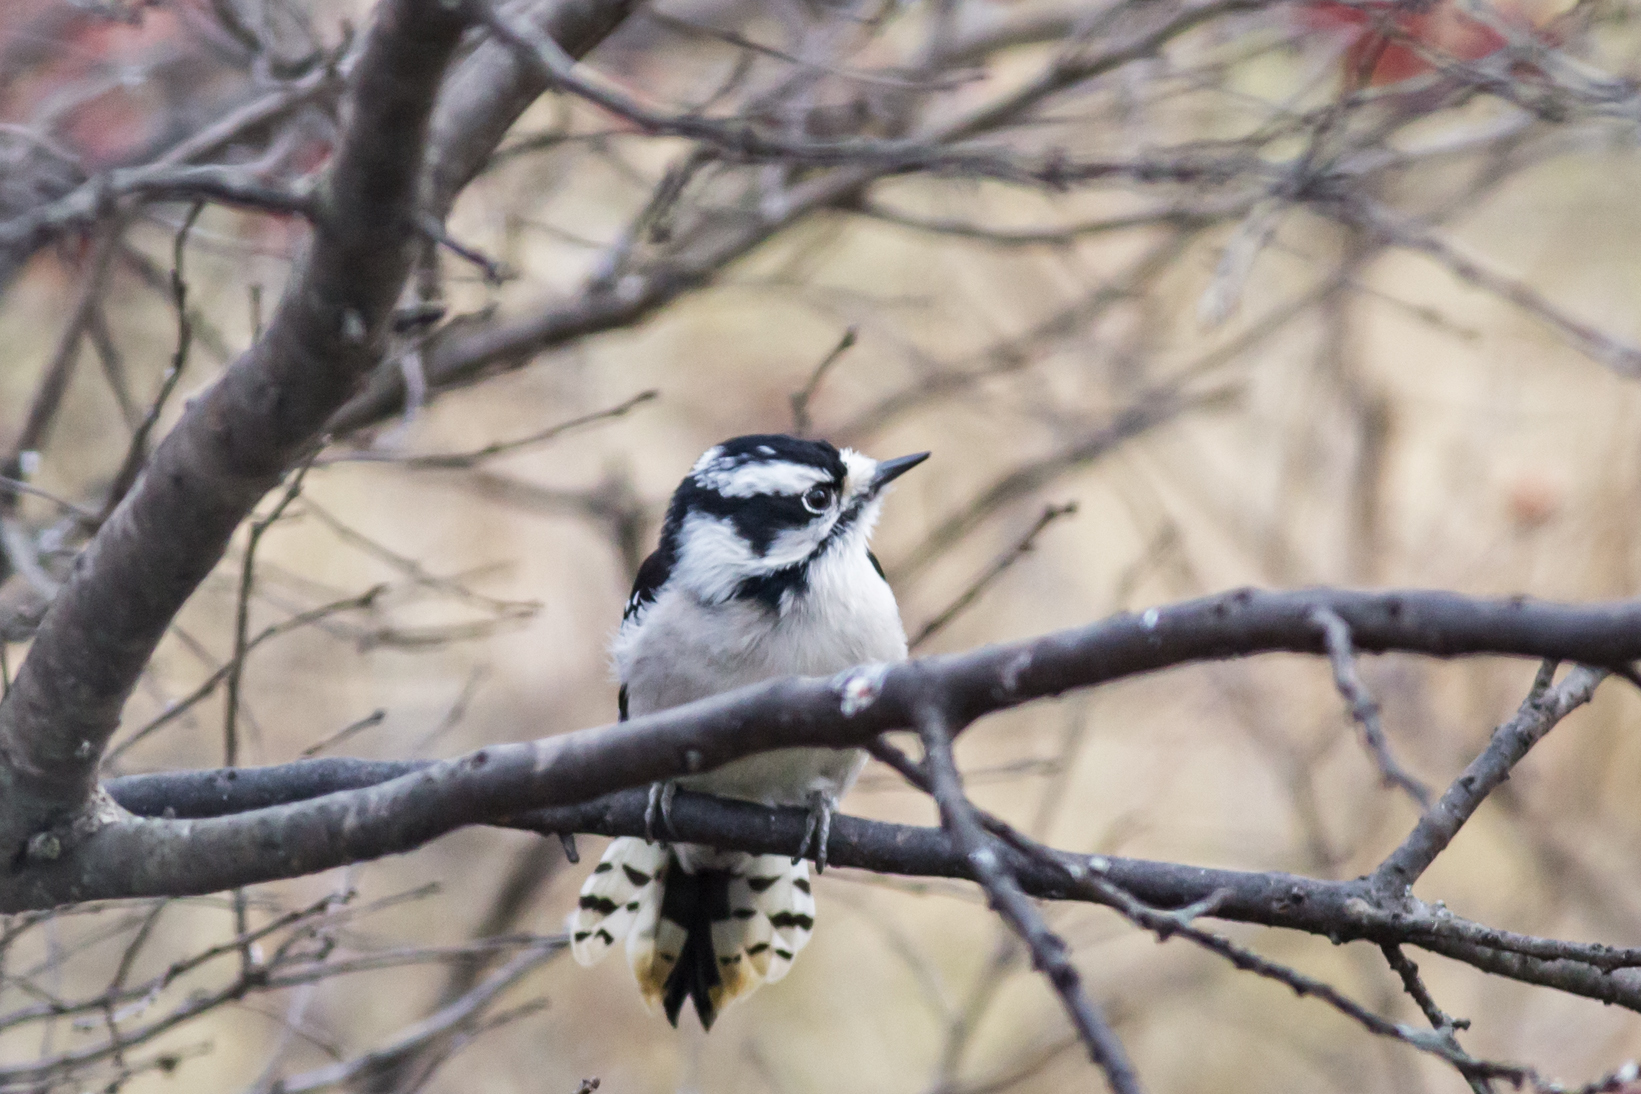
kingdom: Animalia
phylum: Chordata
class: Aves
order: Piciformes
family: Picidae
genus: Dryobates
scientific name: Dryobates pubescens
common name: Downy woodpecker
